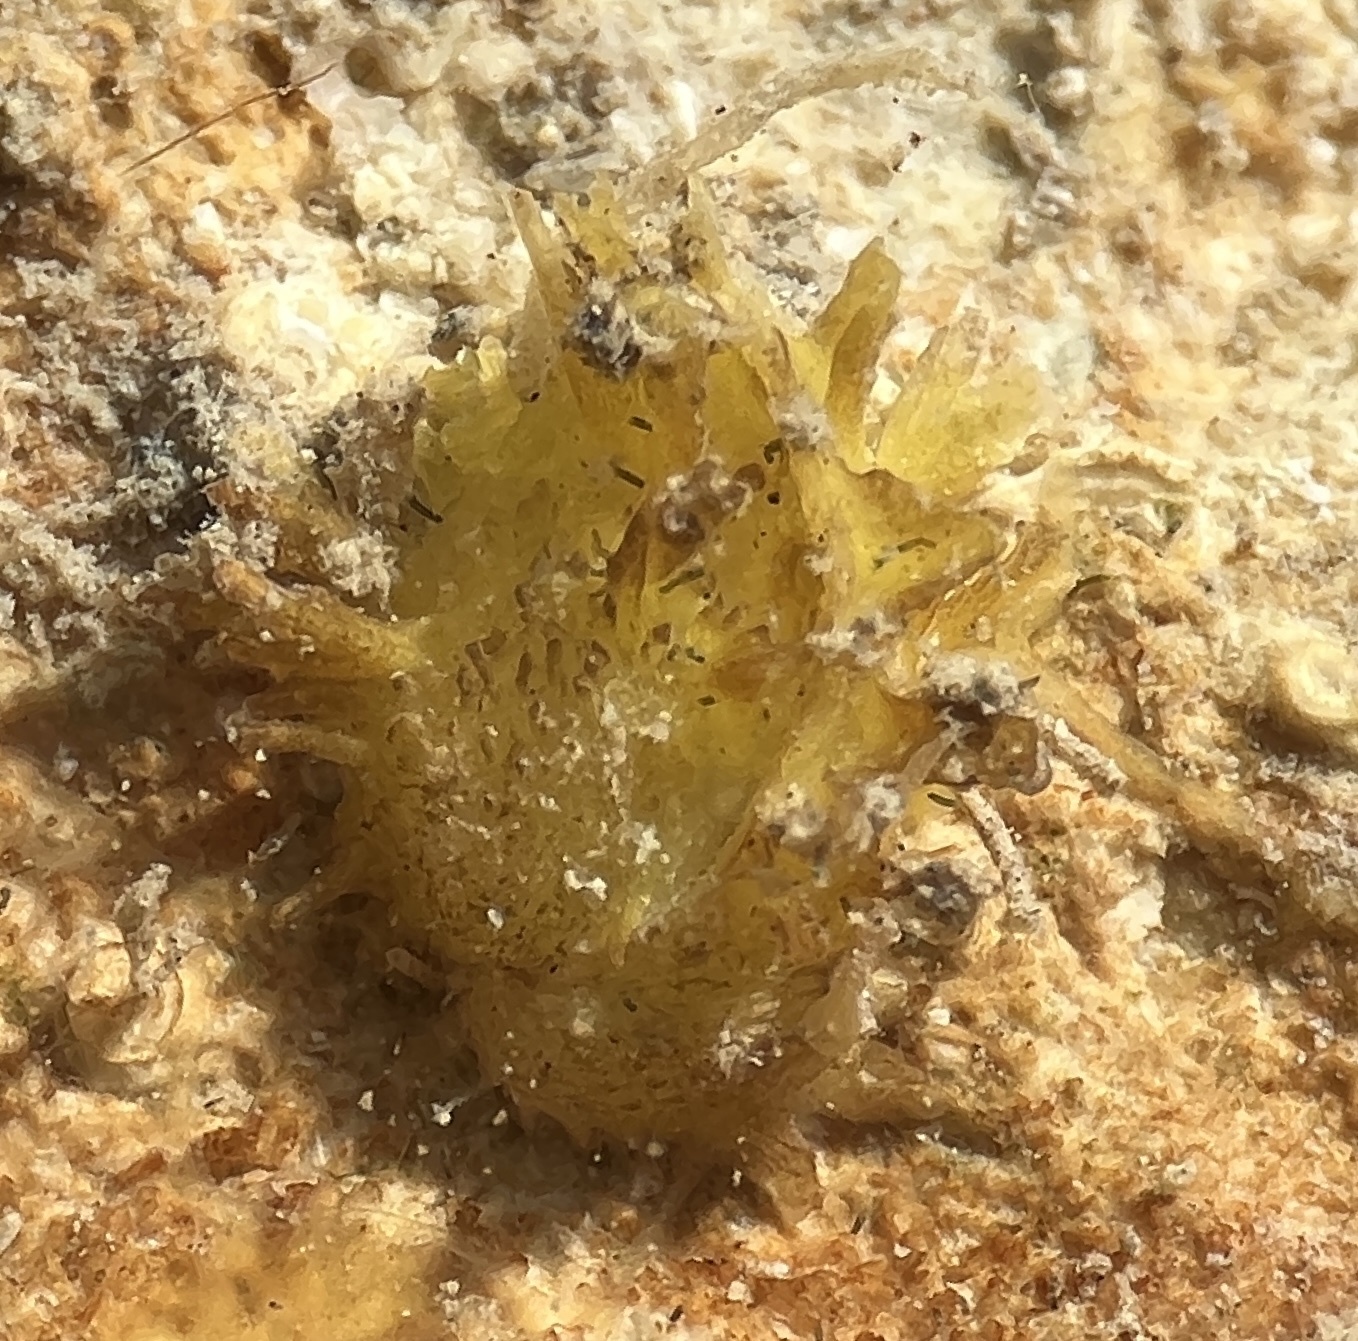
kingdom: Animalia
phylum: Mollusca
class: Bivalvia
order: Venerida
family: Chamidae
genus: Chama
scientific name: Chama macerophylla
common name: Leafy jewelbox
